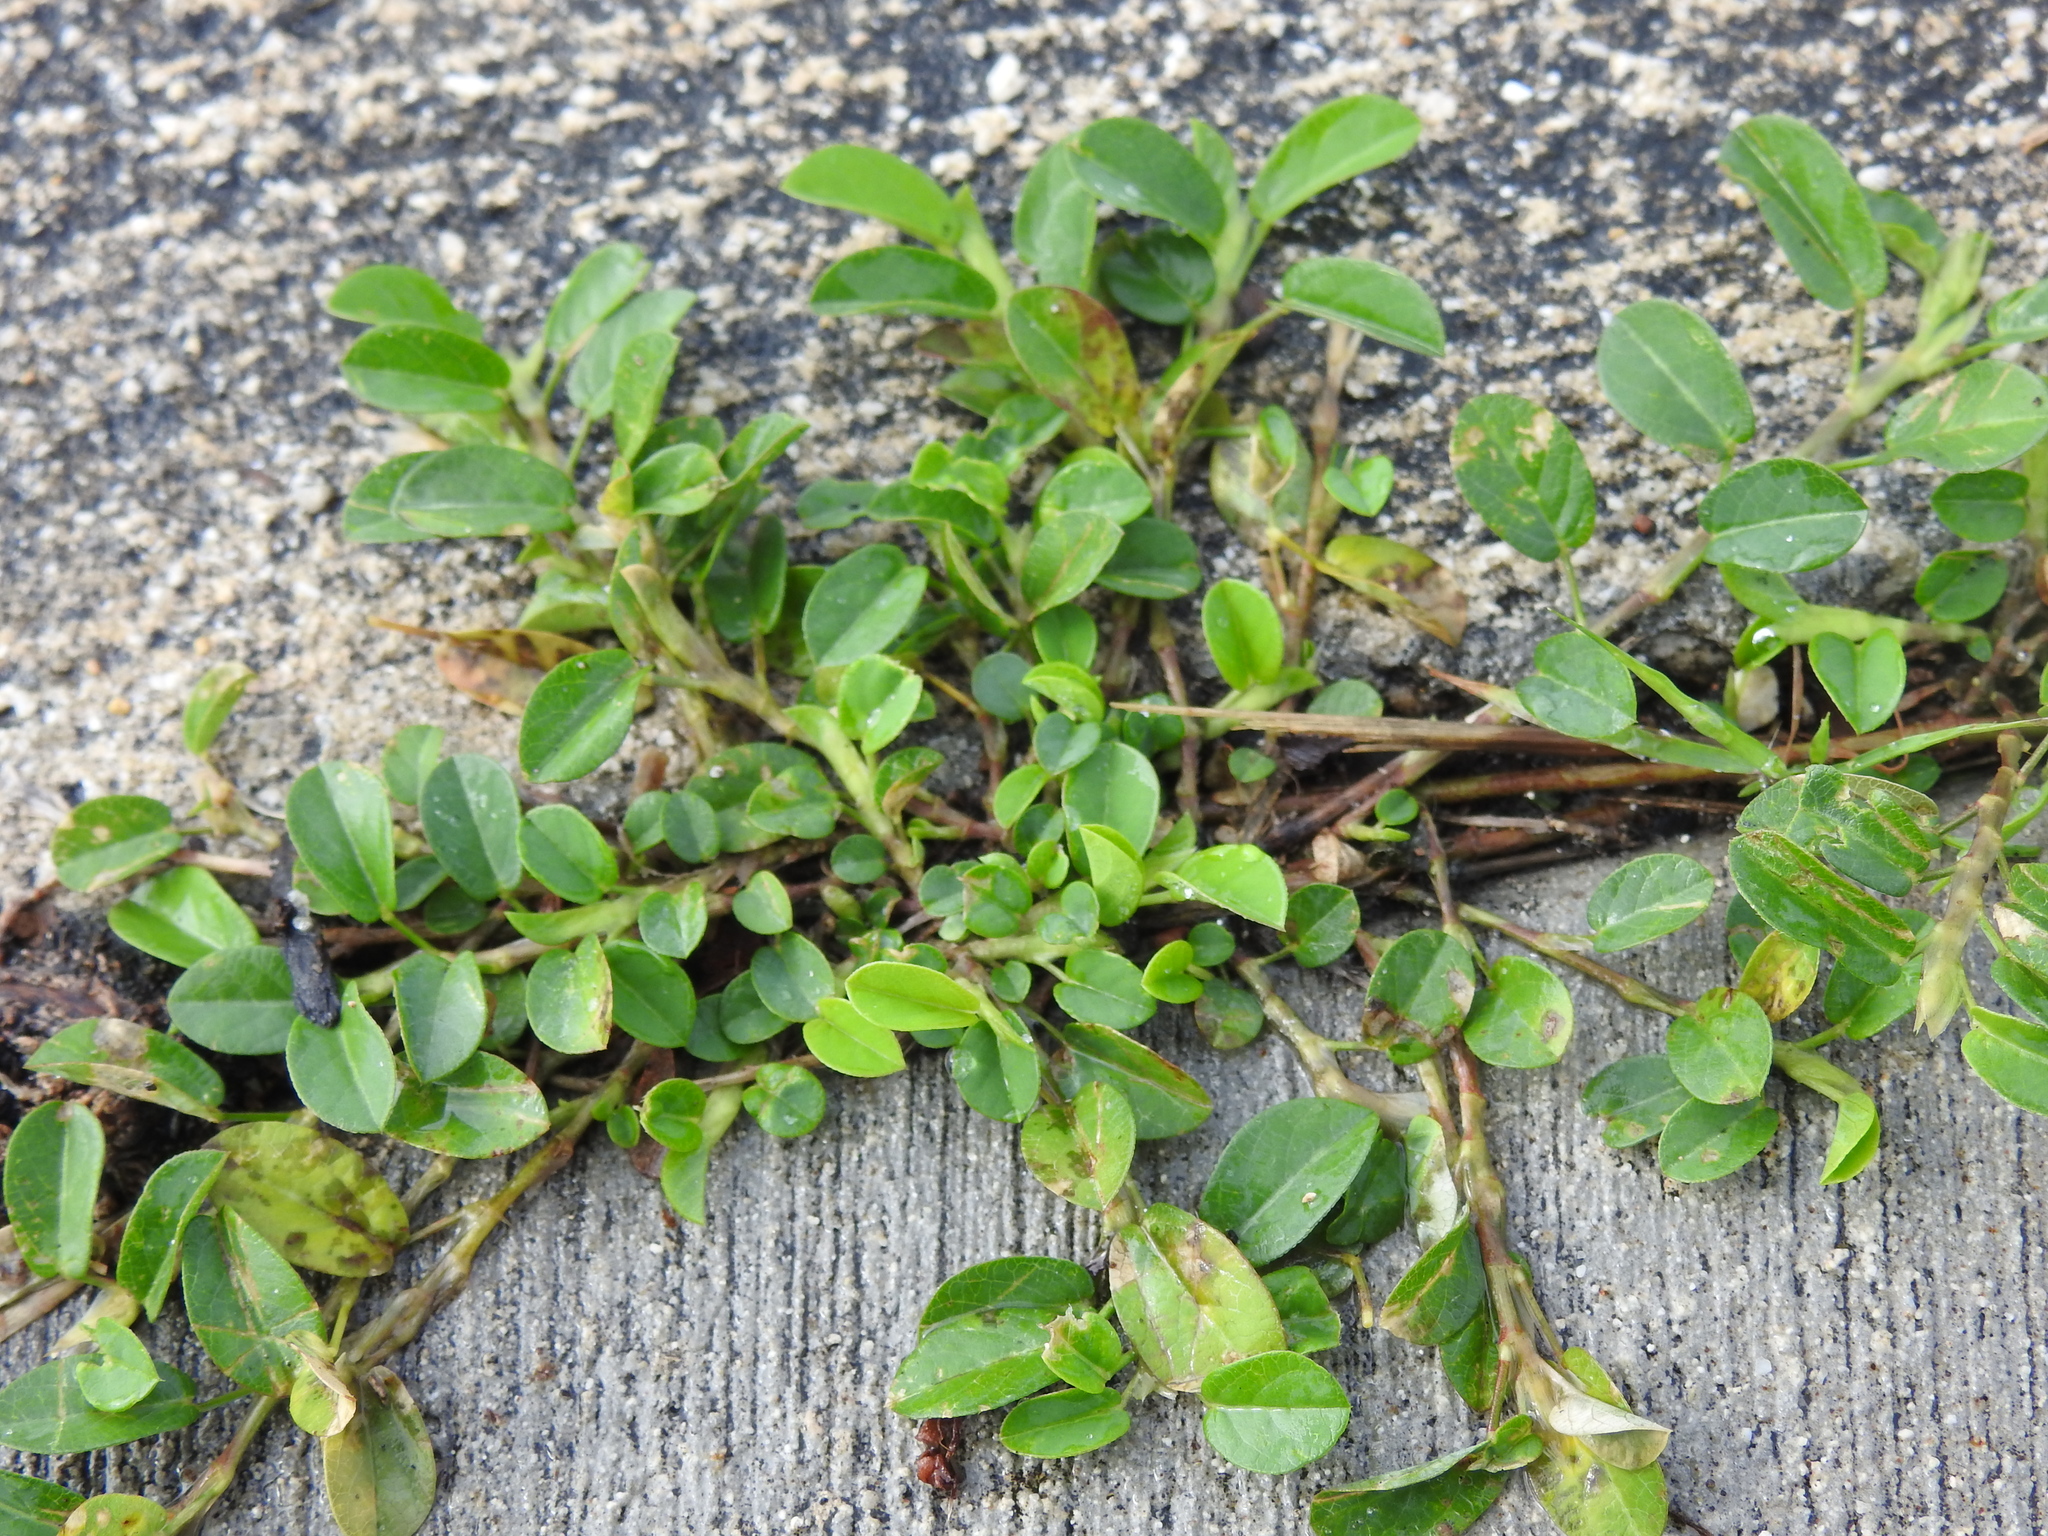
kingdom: Plantae
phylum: Tracheophyta
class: Magnoliopsida
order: Fabales
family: Fabaceae
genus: Alysicarpus
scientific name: Alysicarpus vaginalis
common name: White moneywort
